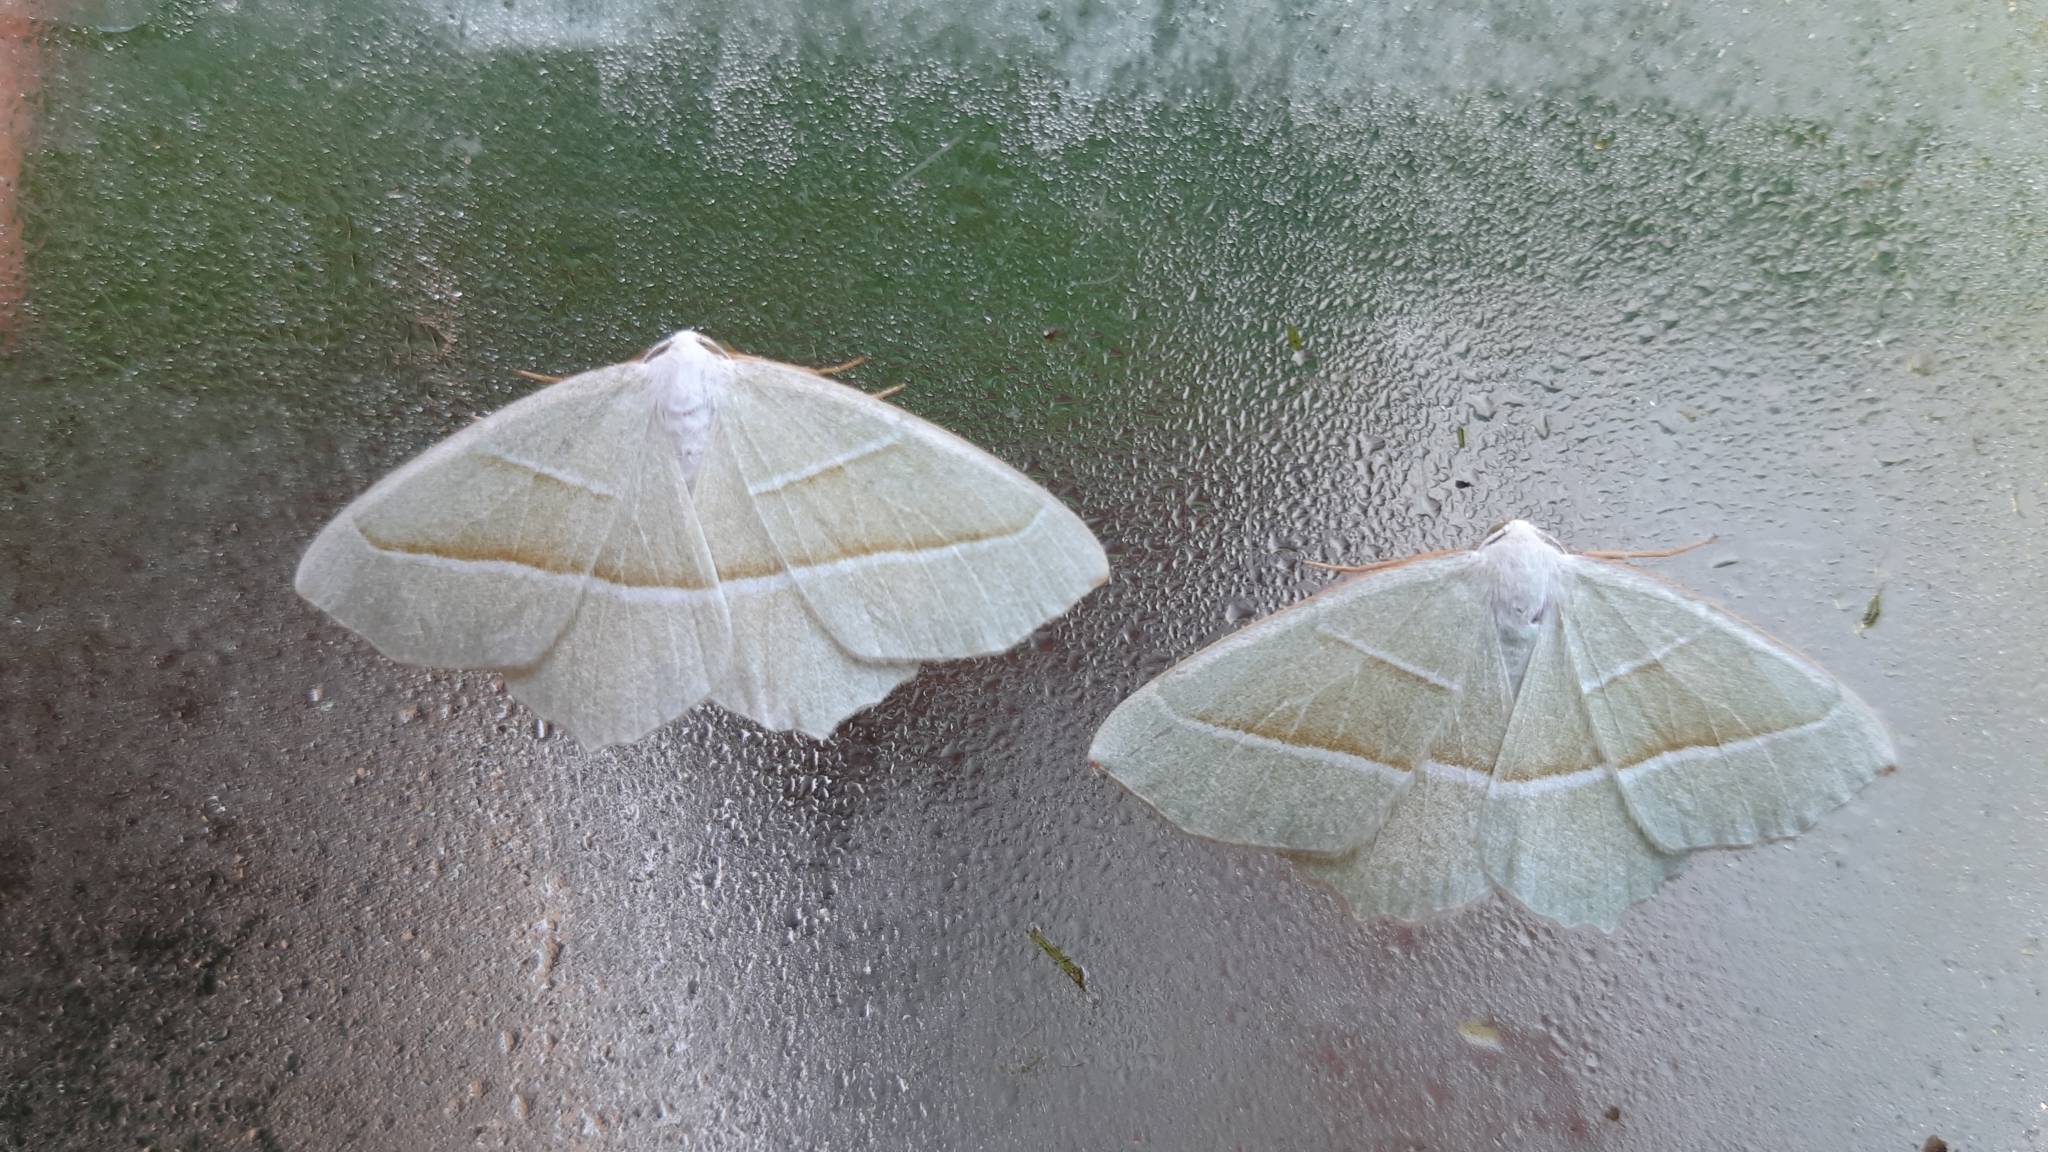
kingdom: Animalia
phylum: Arthropoda
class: Insecta
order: Lepidoptera
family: Geometridae
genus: Campaea
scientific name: Campaea margaritaria
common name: Light emerald
